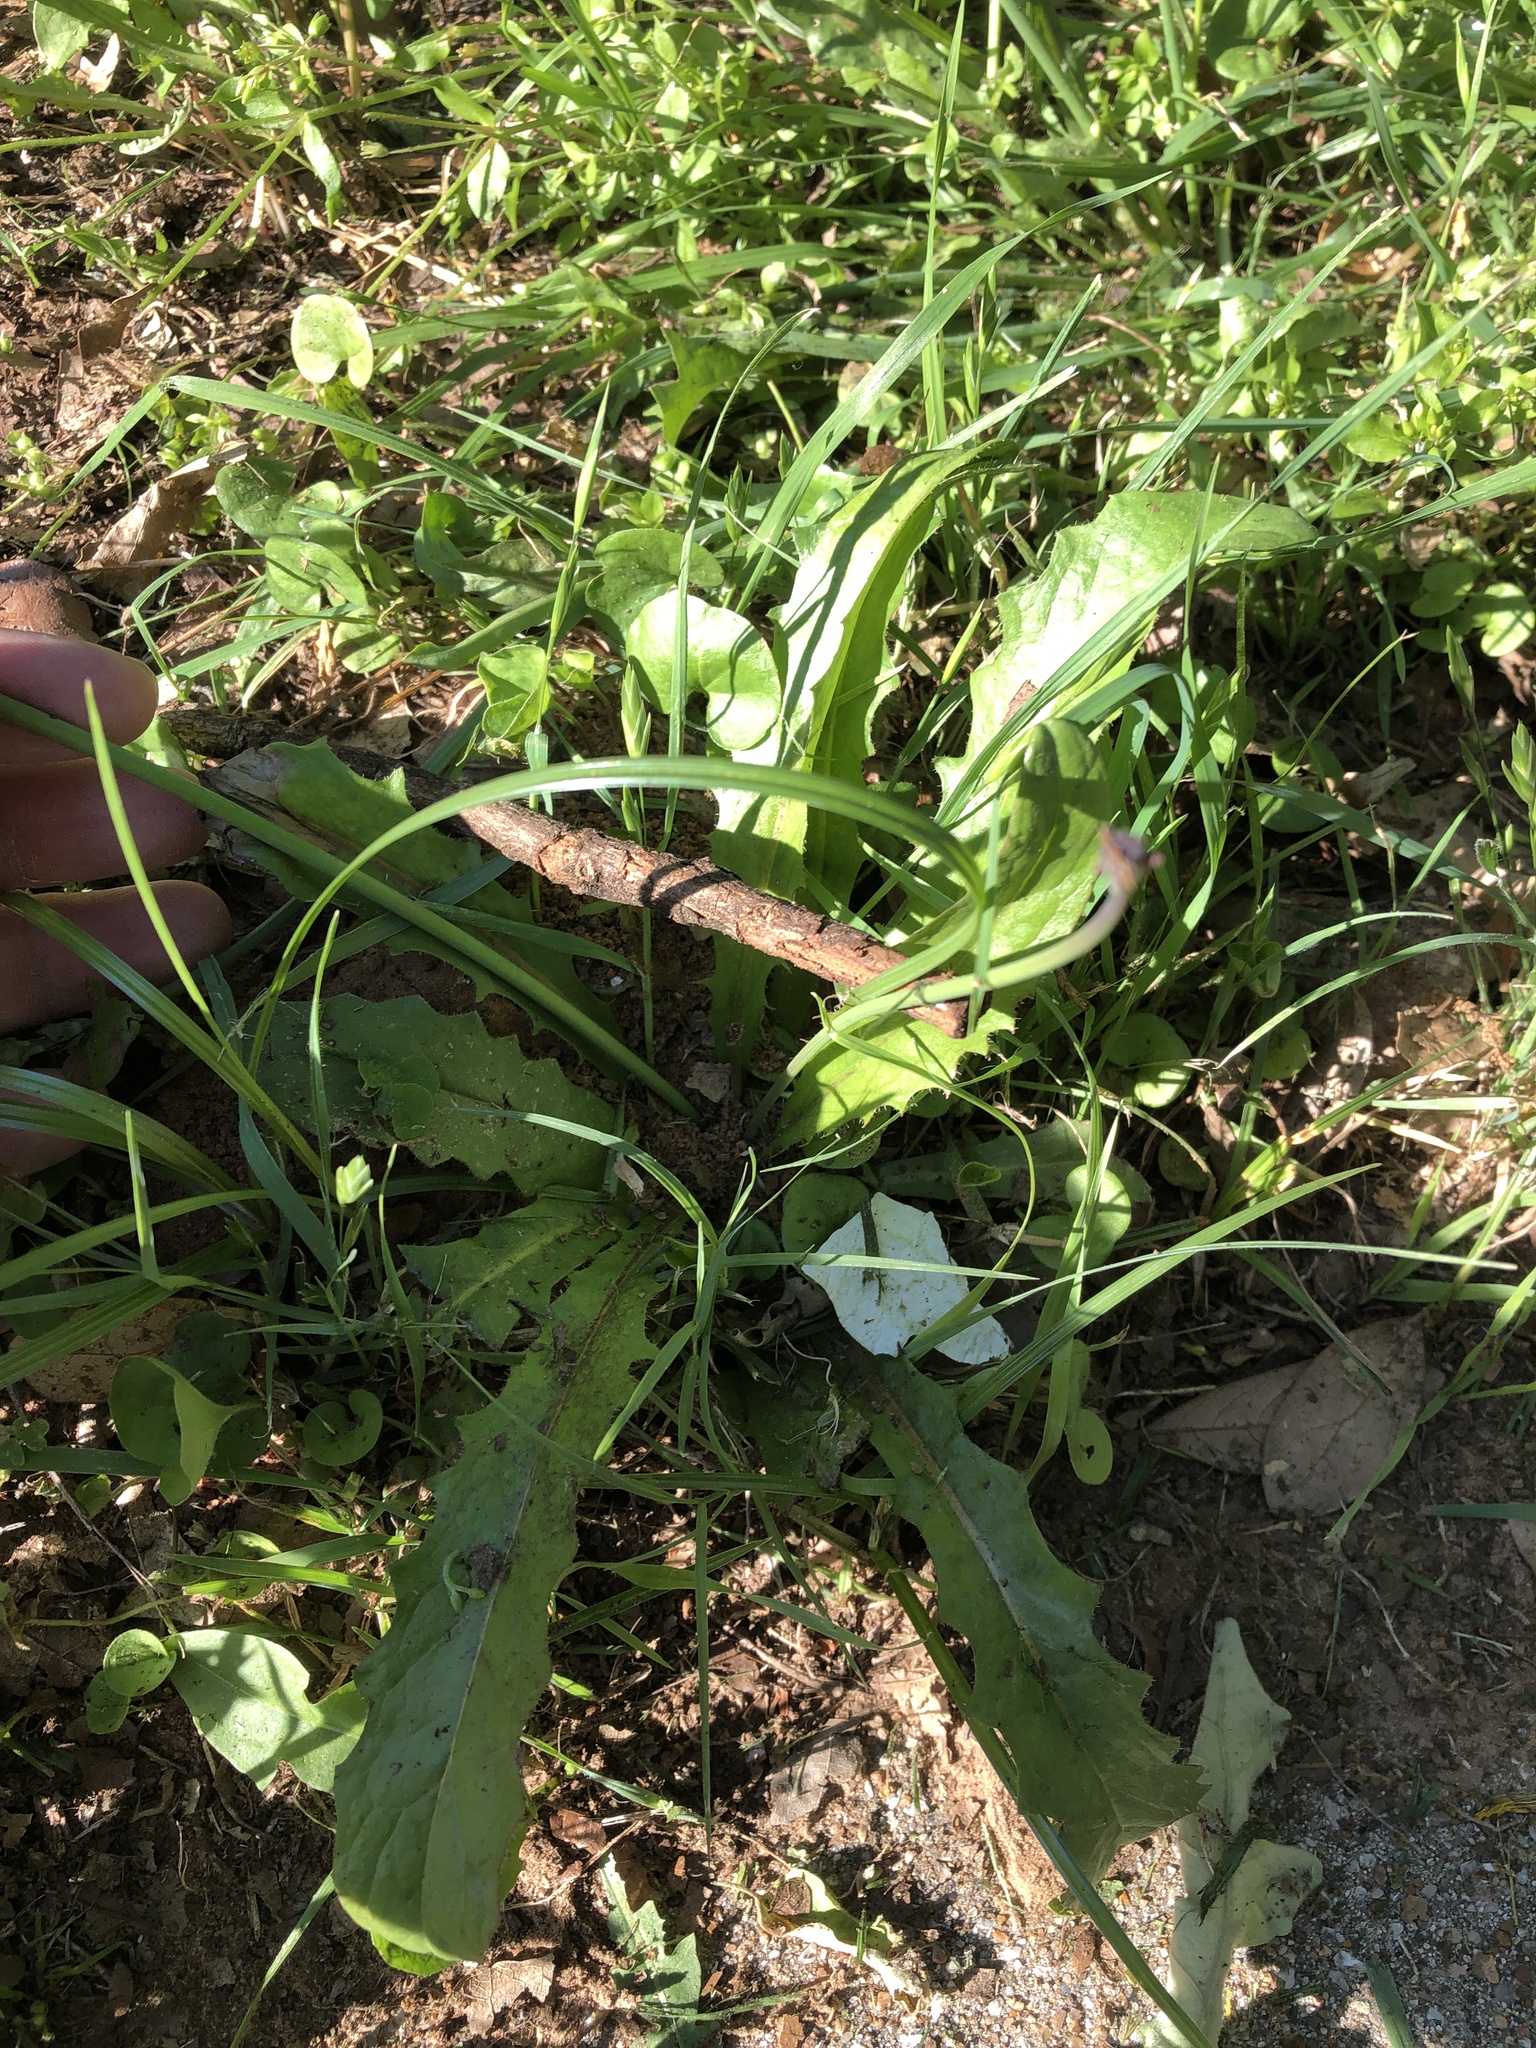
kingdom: Plantae
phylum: Tracheophyta
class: Magnoliopsida
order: Asterales
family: Asteraceae
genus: Hypochaeris
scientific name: Hypochaeris glabra
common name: Smooth catsear
